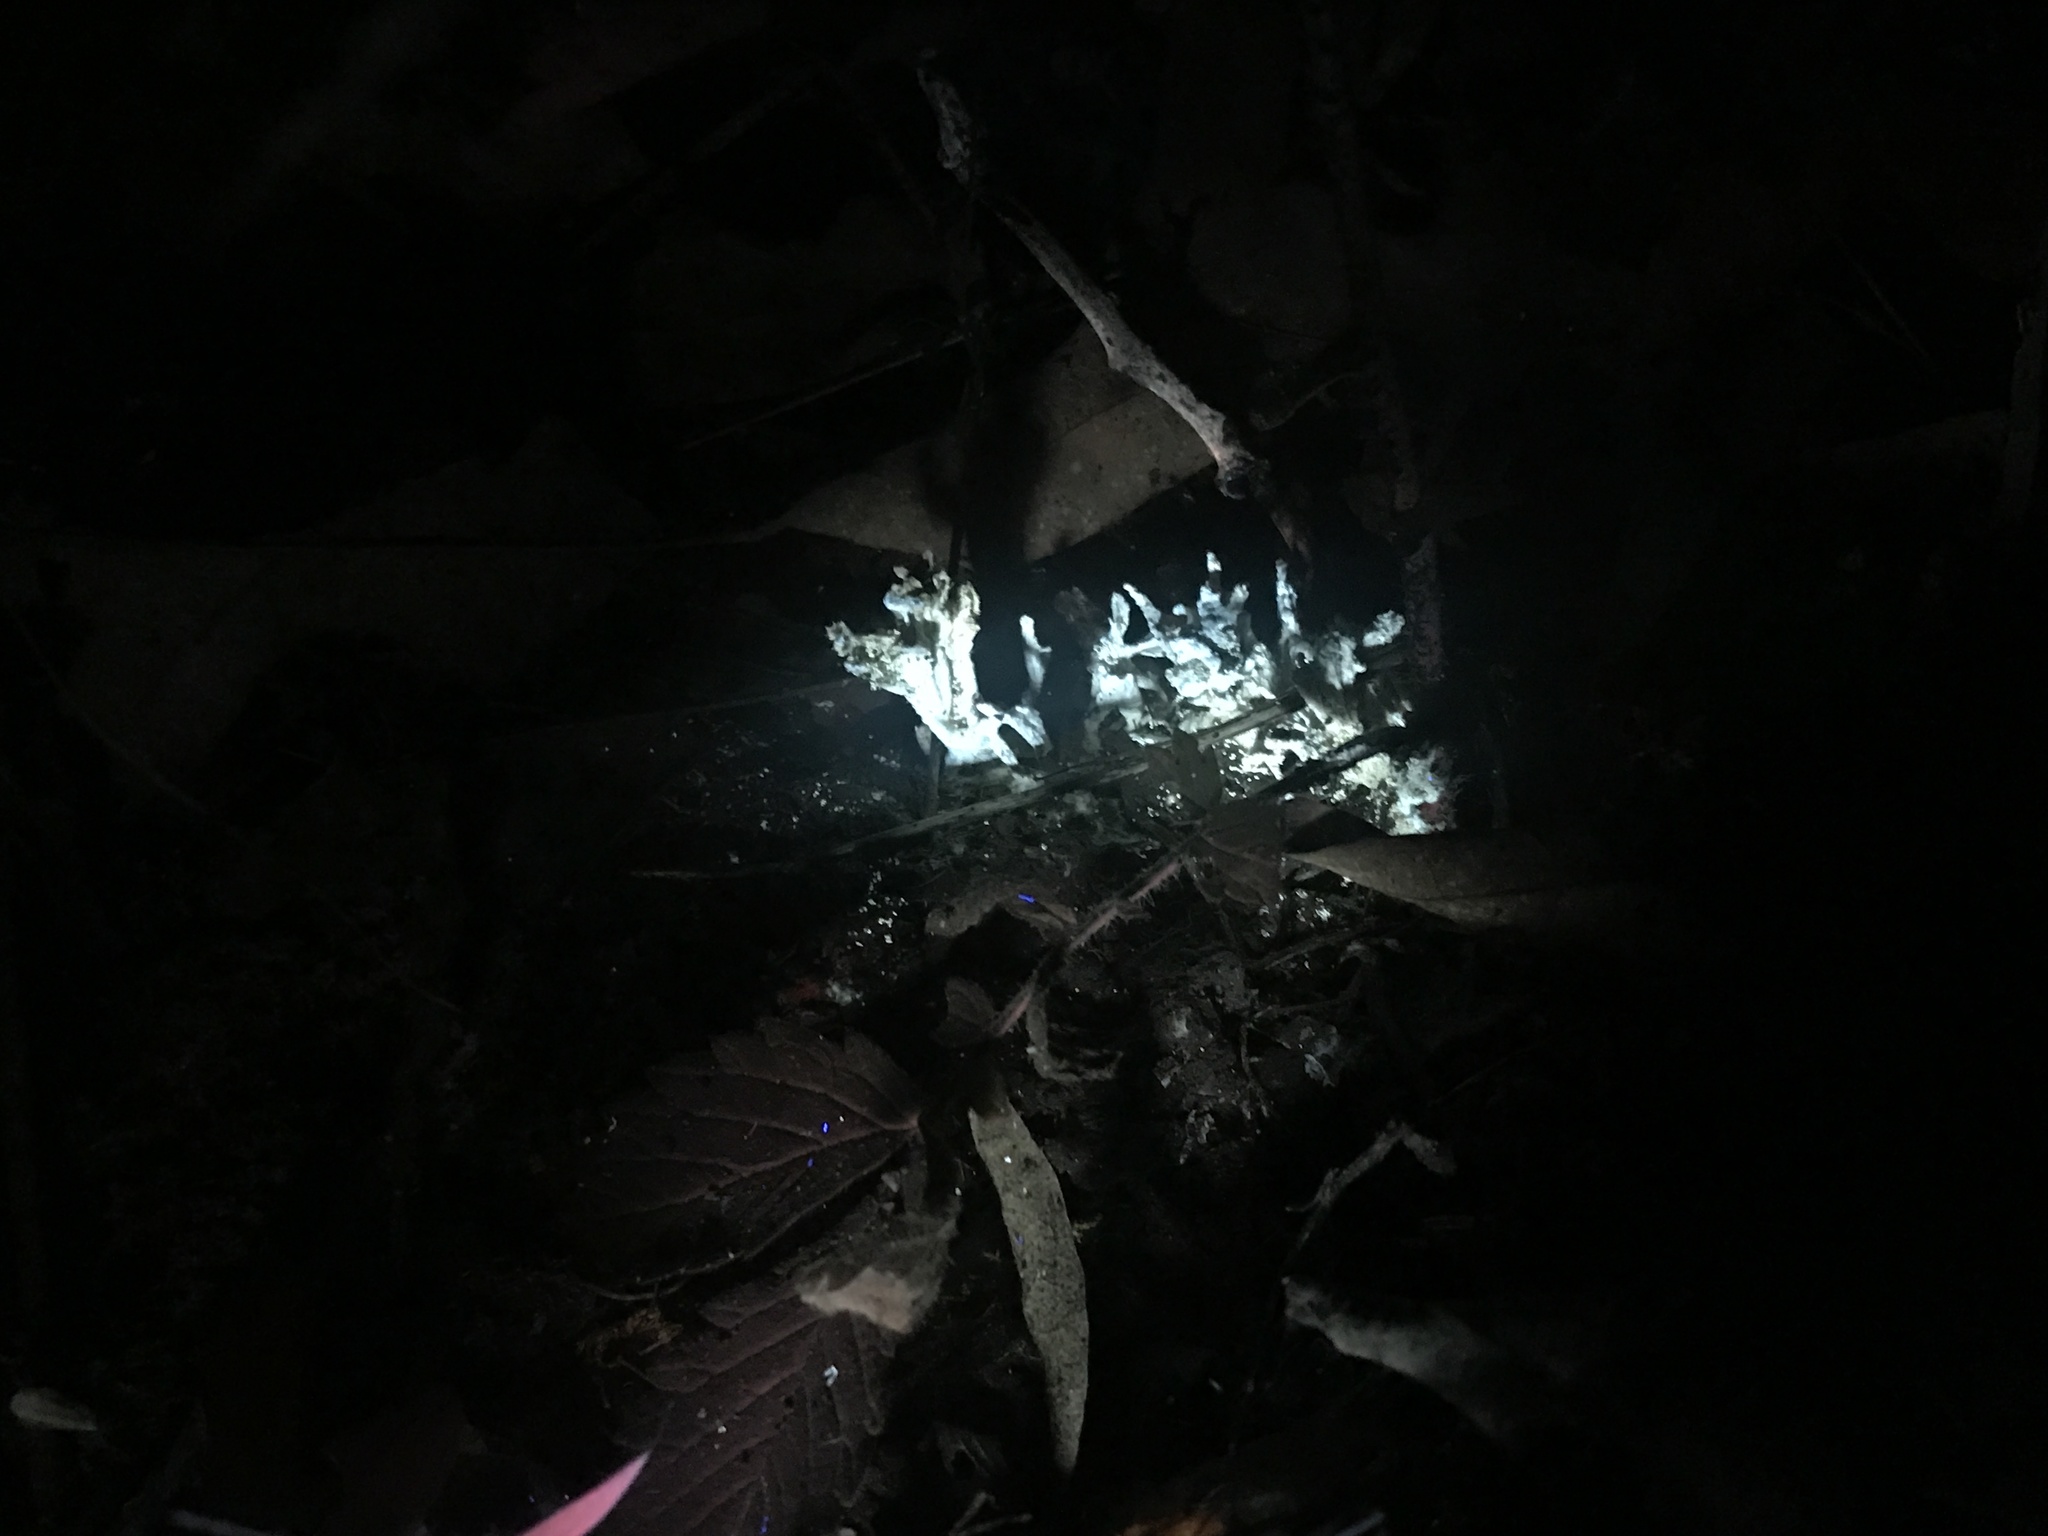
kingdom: Fungi
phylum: Basidiomycota
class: Agaricomycetes
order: Sebacinales
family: Sebacinaceae
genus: Sebacina
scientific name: Sebacina schweinitzii
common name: Jellied false coral fungus
